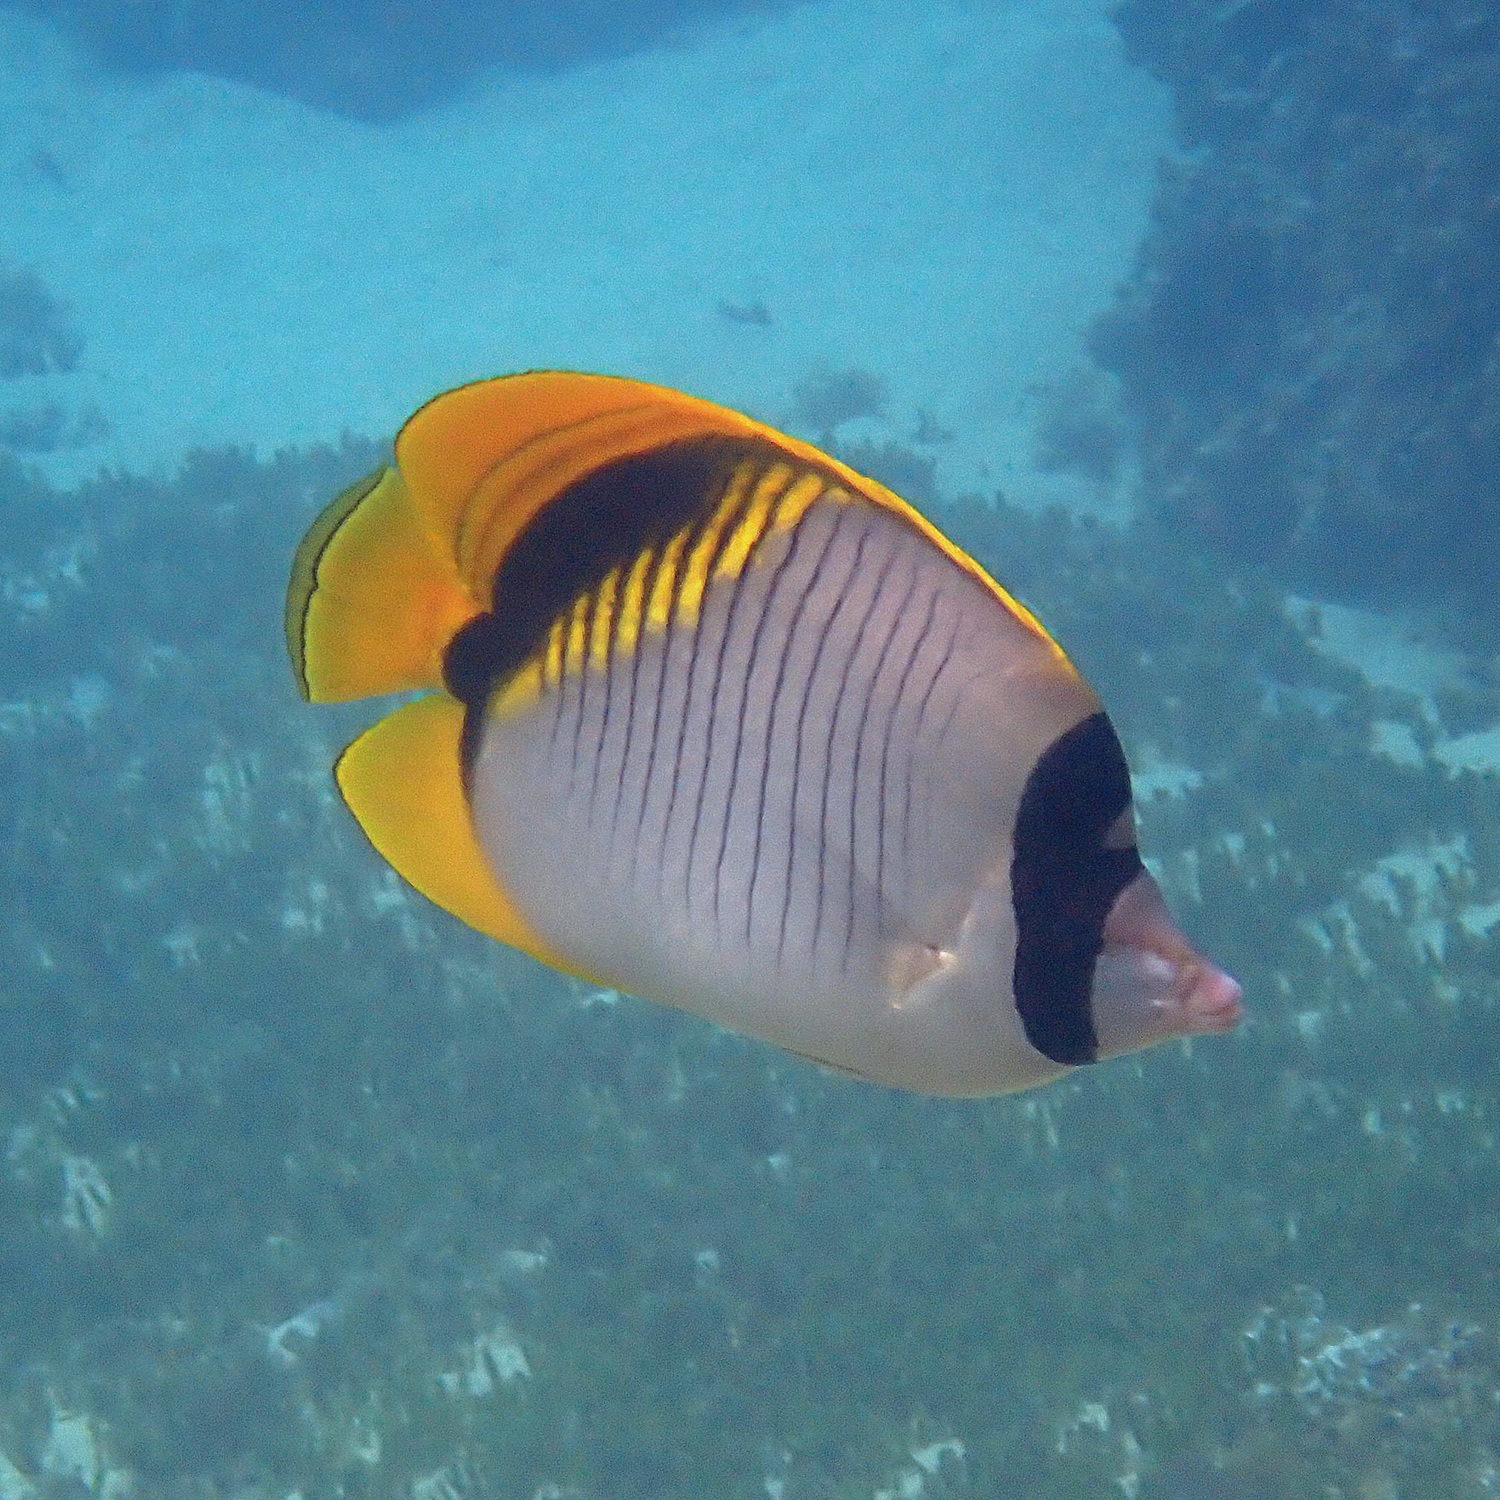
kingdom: Animalia
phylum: Chordata
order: Perciformes
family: Chaetodontidae
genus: Chaetodon
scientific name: Chaetodon lineolatus
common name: Lined butterflyfish
